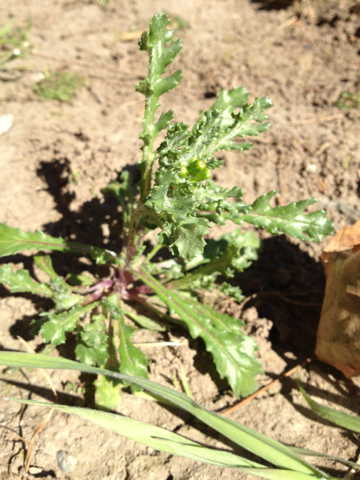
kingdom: Plantae
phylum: Tracheophyta
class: Magnoliopsida
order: Asterales
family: Asteraceae
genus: Senecio
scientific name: Senecio vulgaris
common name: Old-man-in-the-spring
